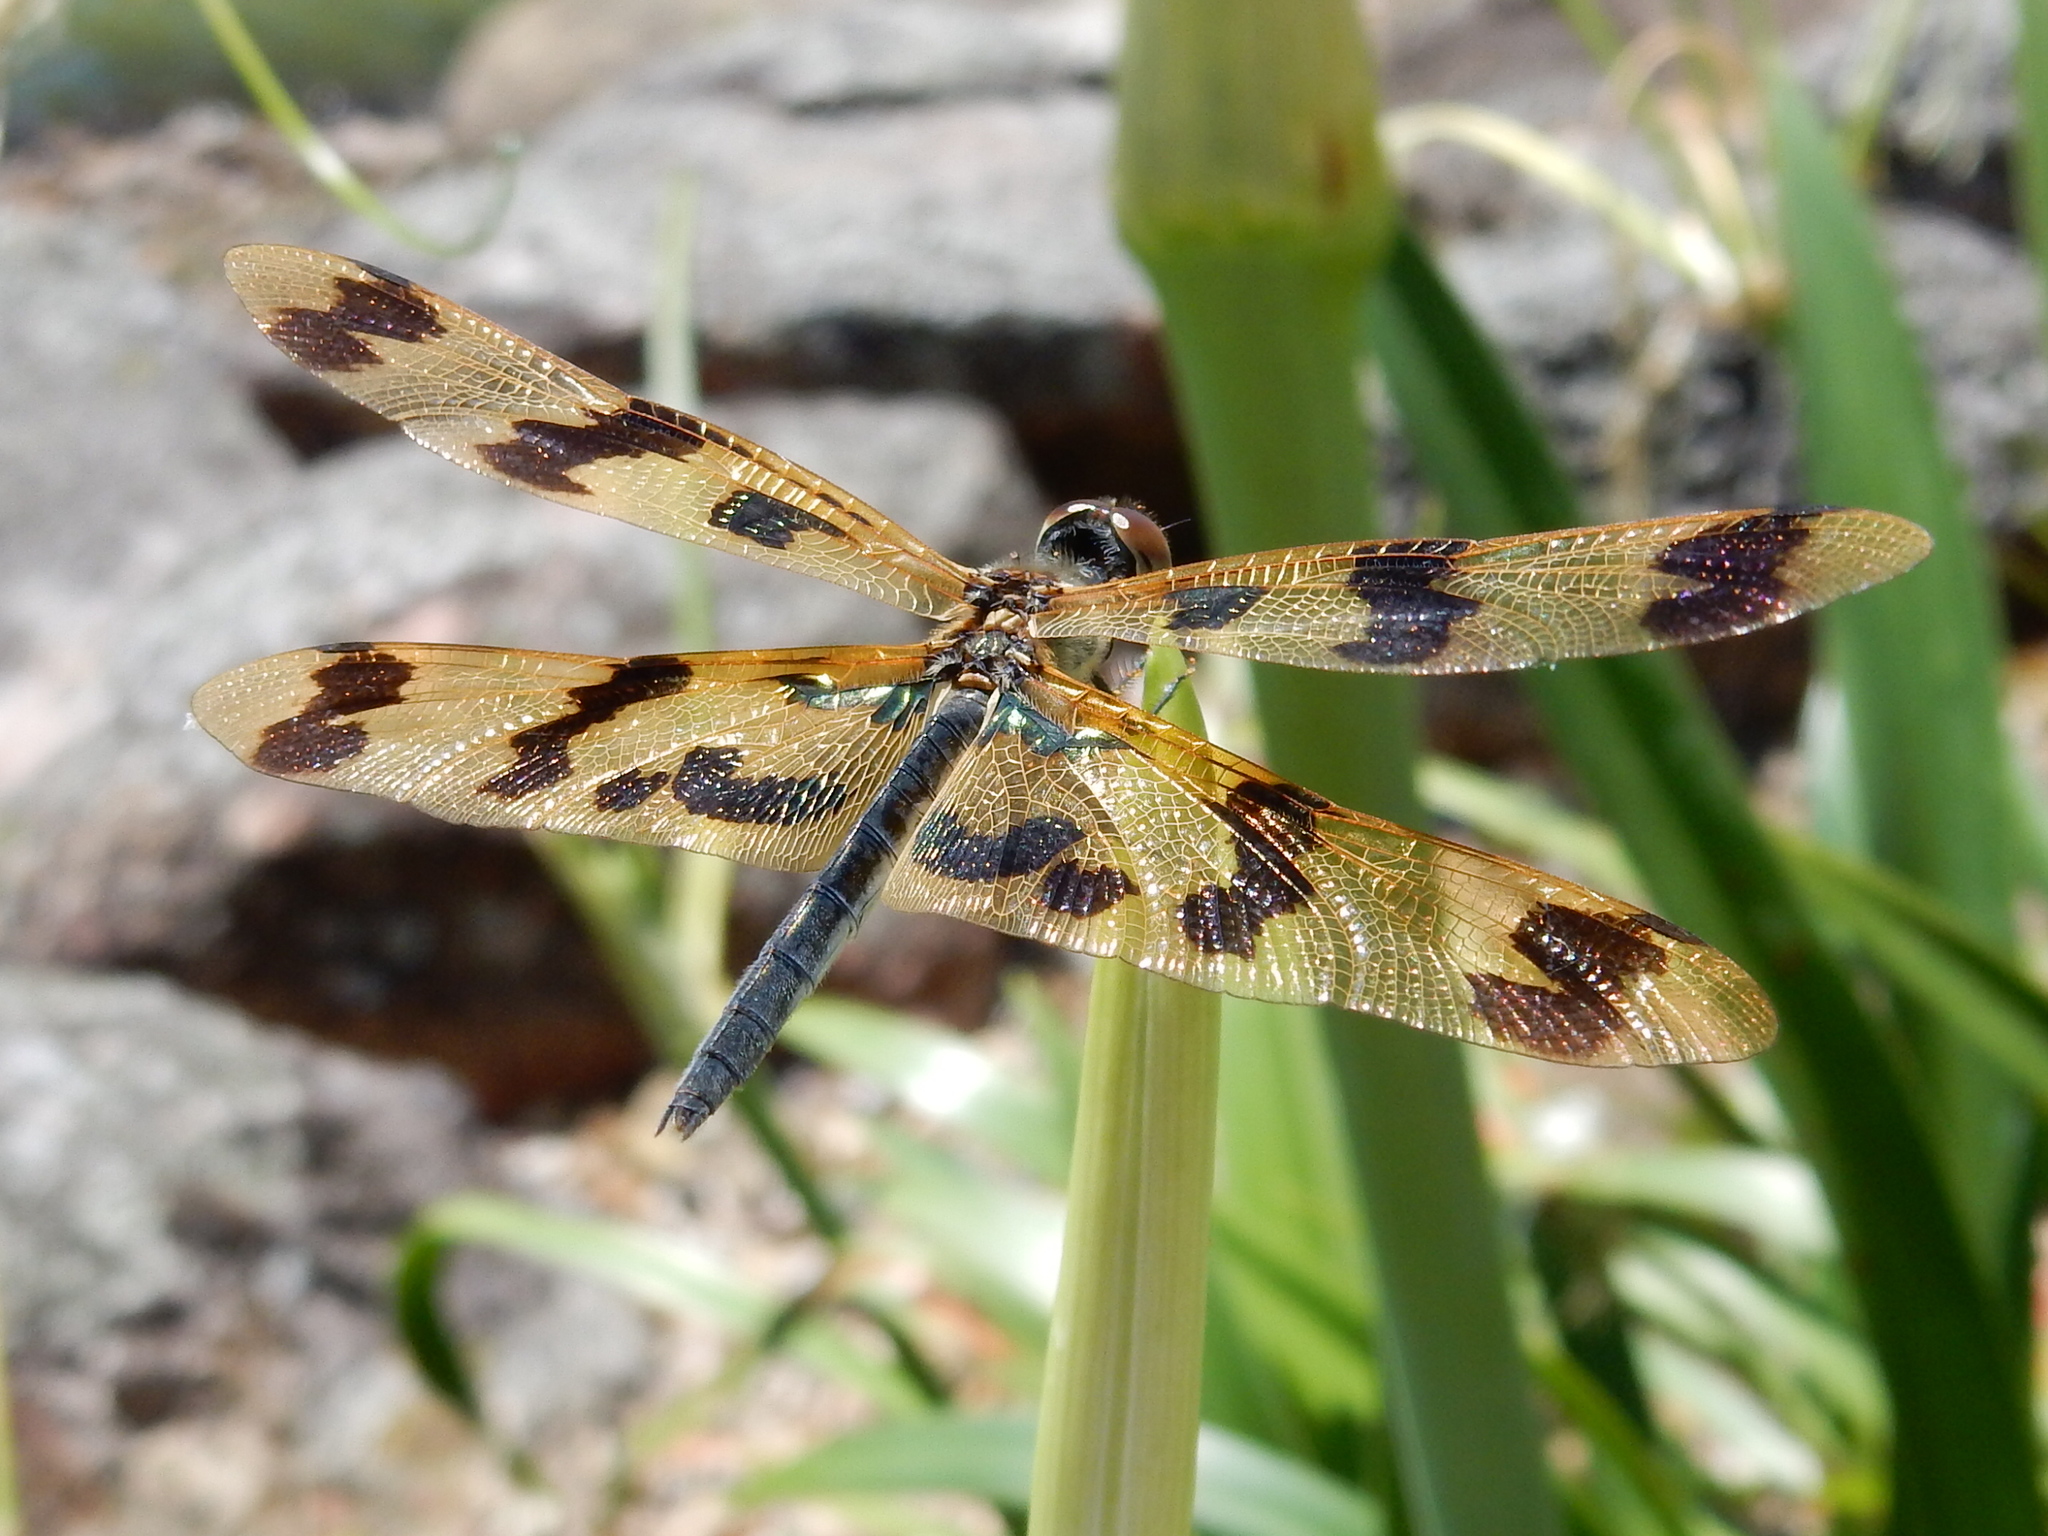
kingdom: Animalia
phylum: Arthropoda
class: Insecta
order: Odonata
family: Libellulidae
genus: Rhyothemis
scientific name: Rhyothemis graphiptera
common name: Graphic flutterer
